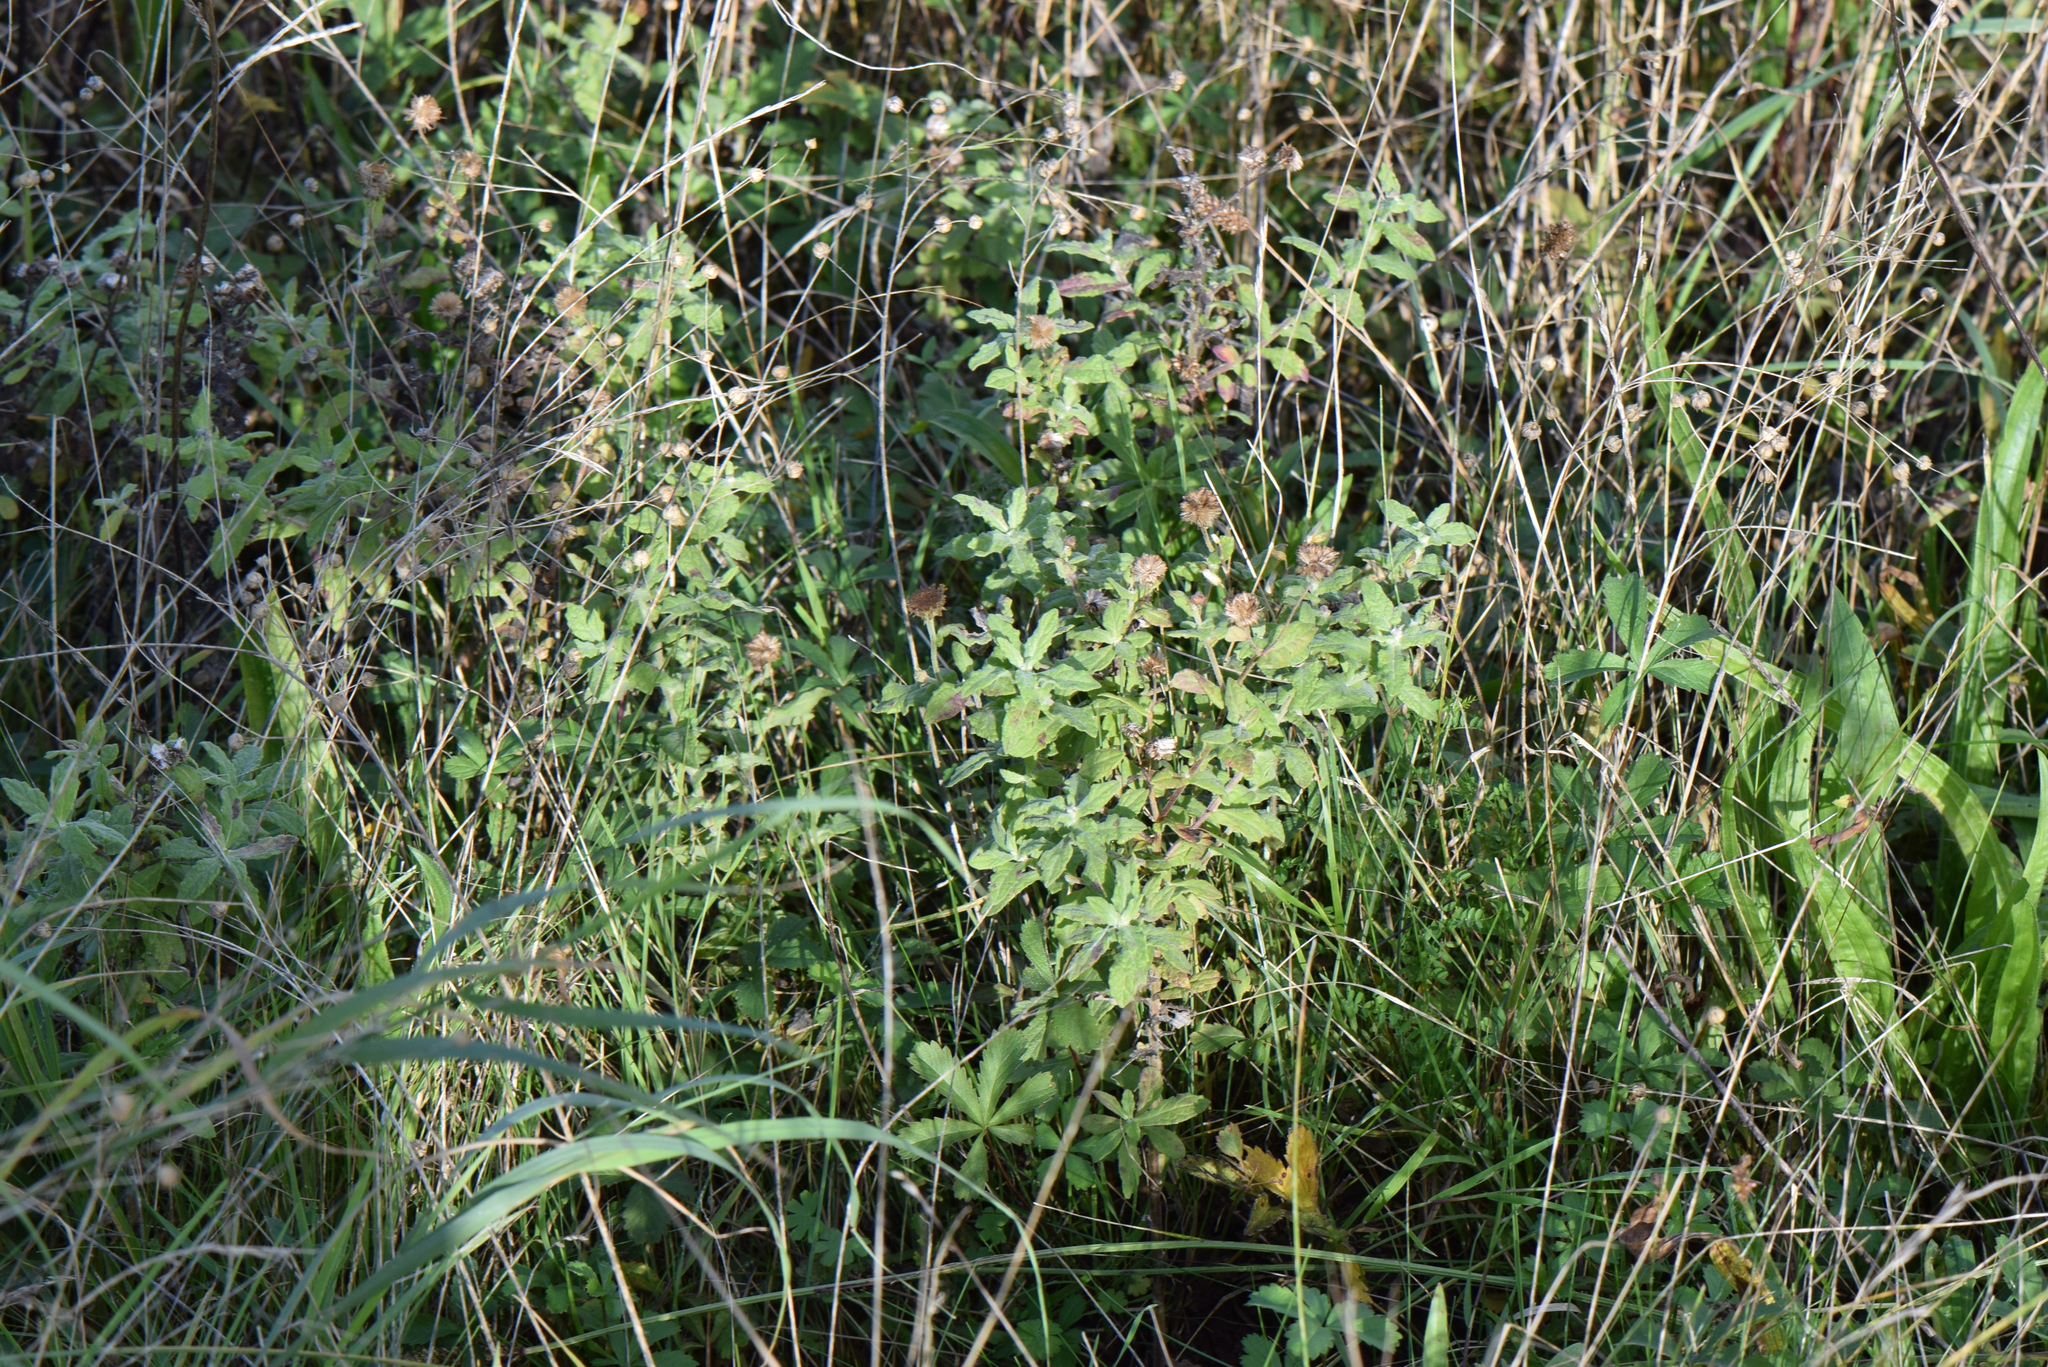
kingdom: Plantae
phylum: Tracheophyta
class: Magnoliopsida
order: Asterales
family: Asteraceae
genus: Pulicaria
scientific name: Pulicaria dysenterica
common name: Common fleabane
